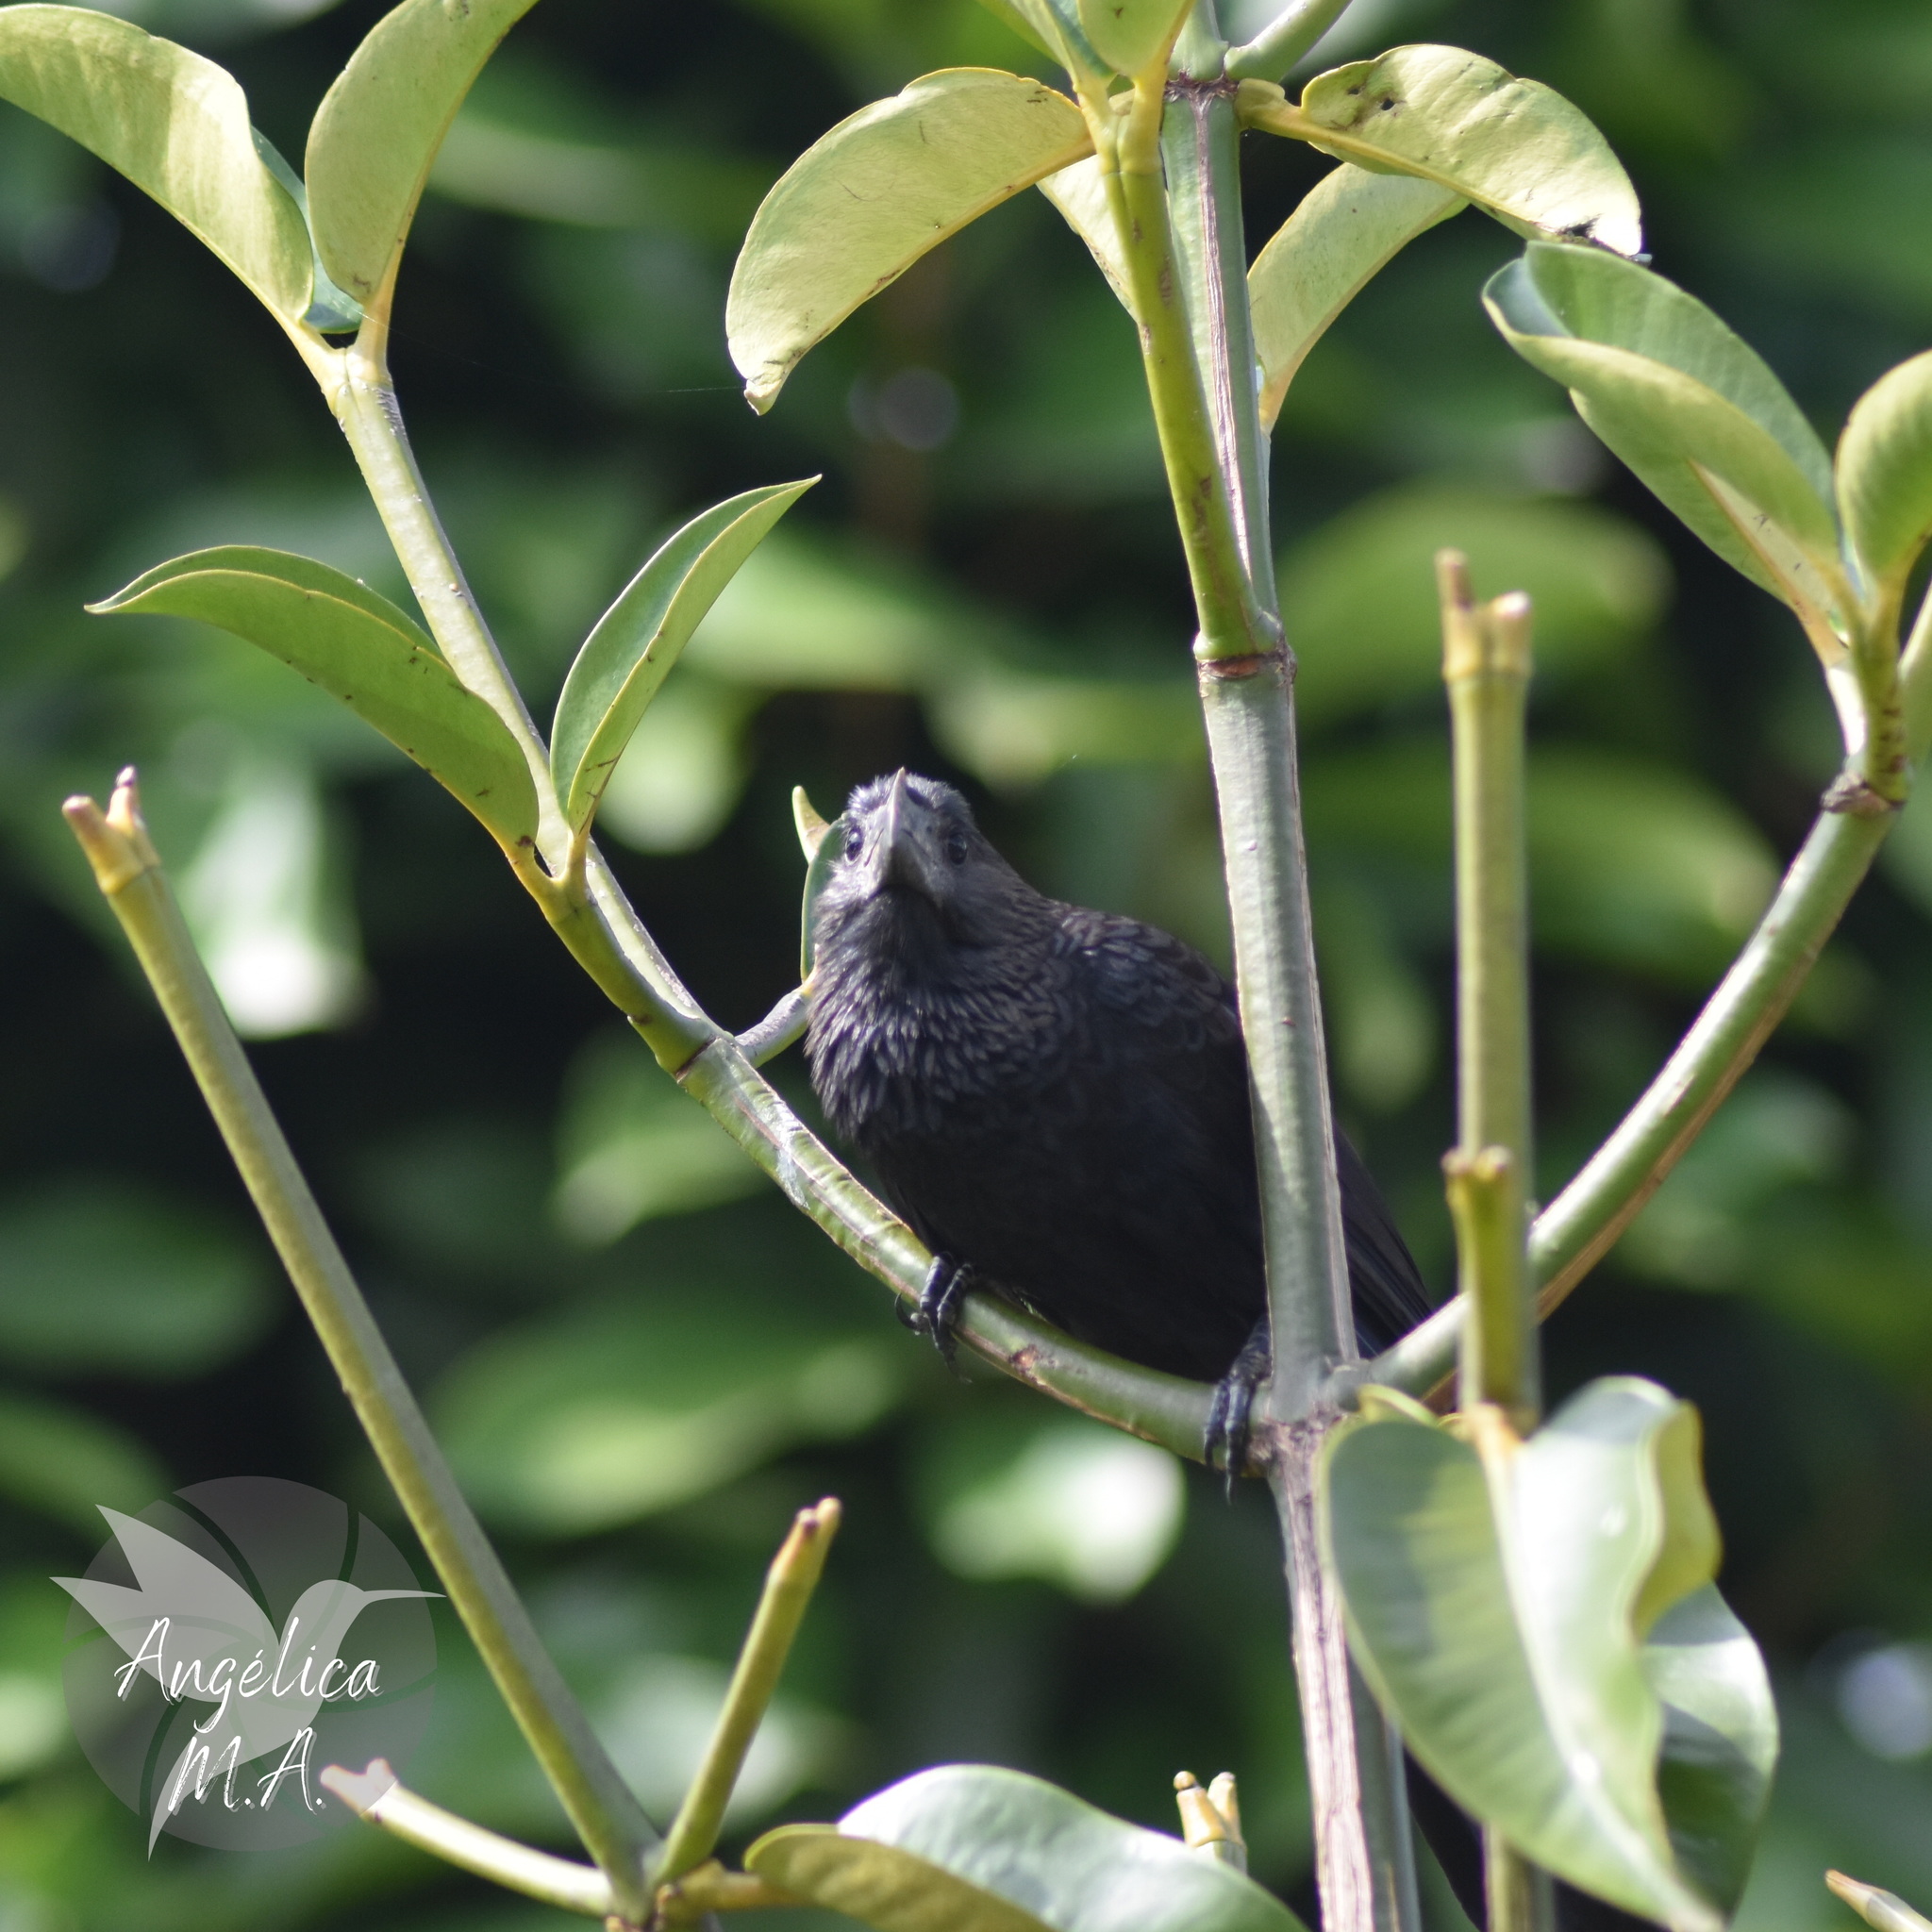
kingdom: Animalia
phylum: Chordata
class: Aves
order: Cuculiformes
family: Cuculidae
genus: Crotophaga
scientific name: Crotophaga ani
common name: Smooth-billed ani
